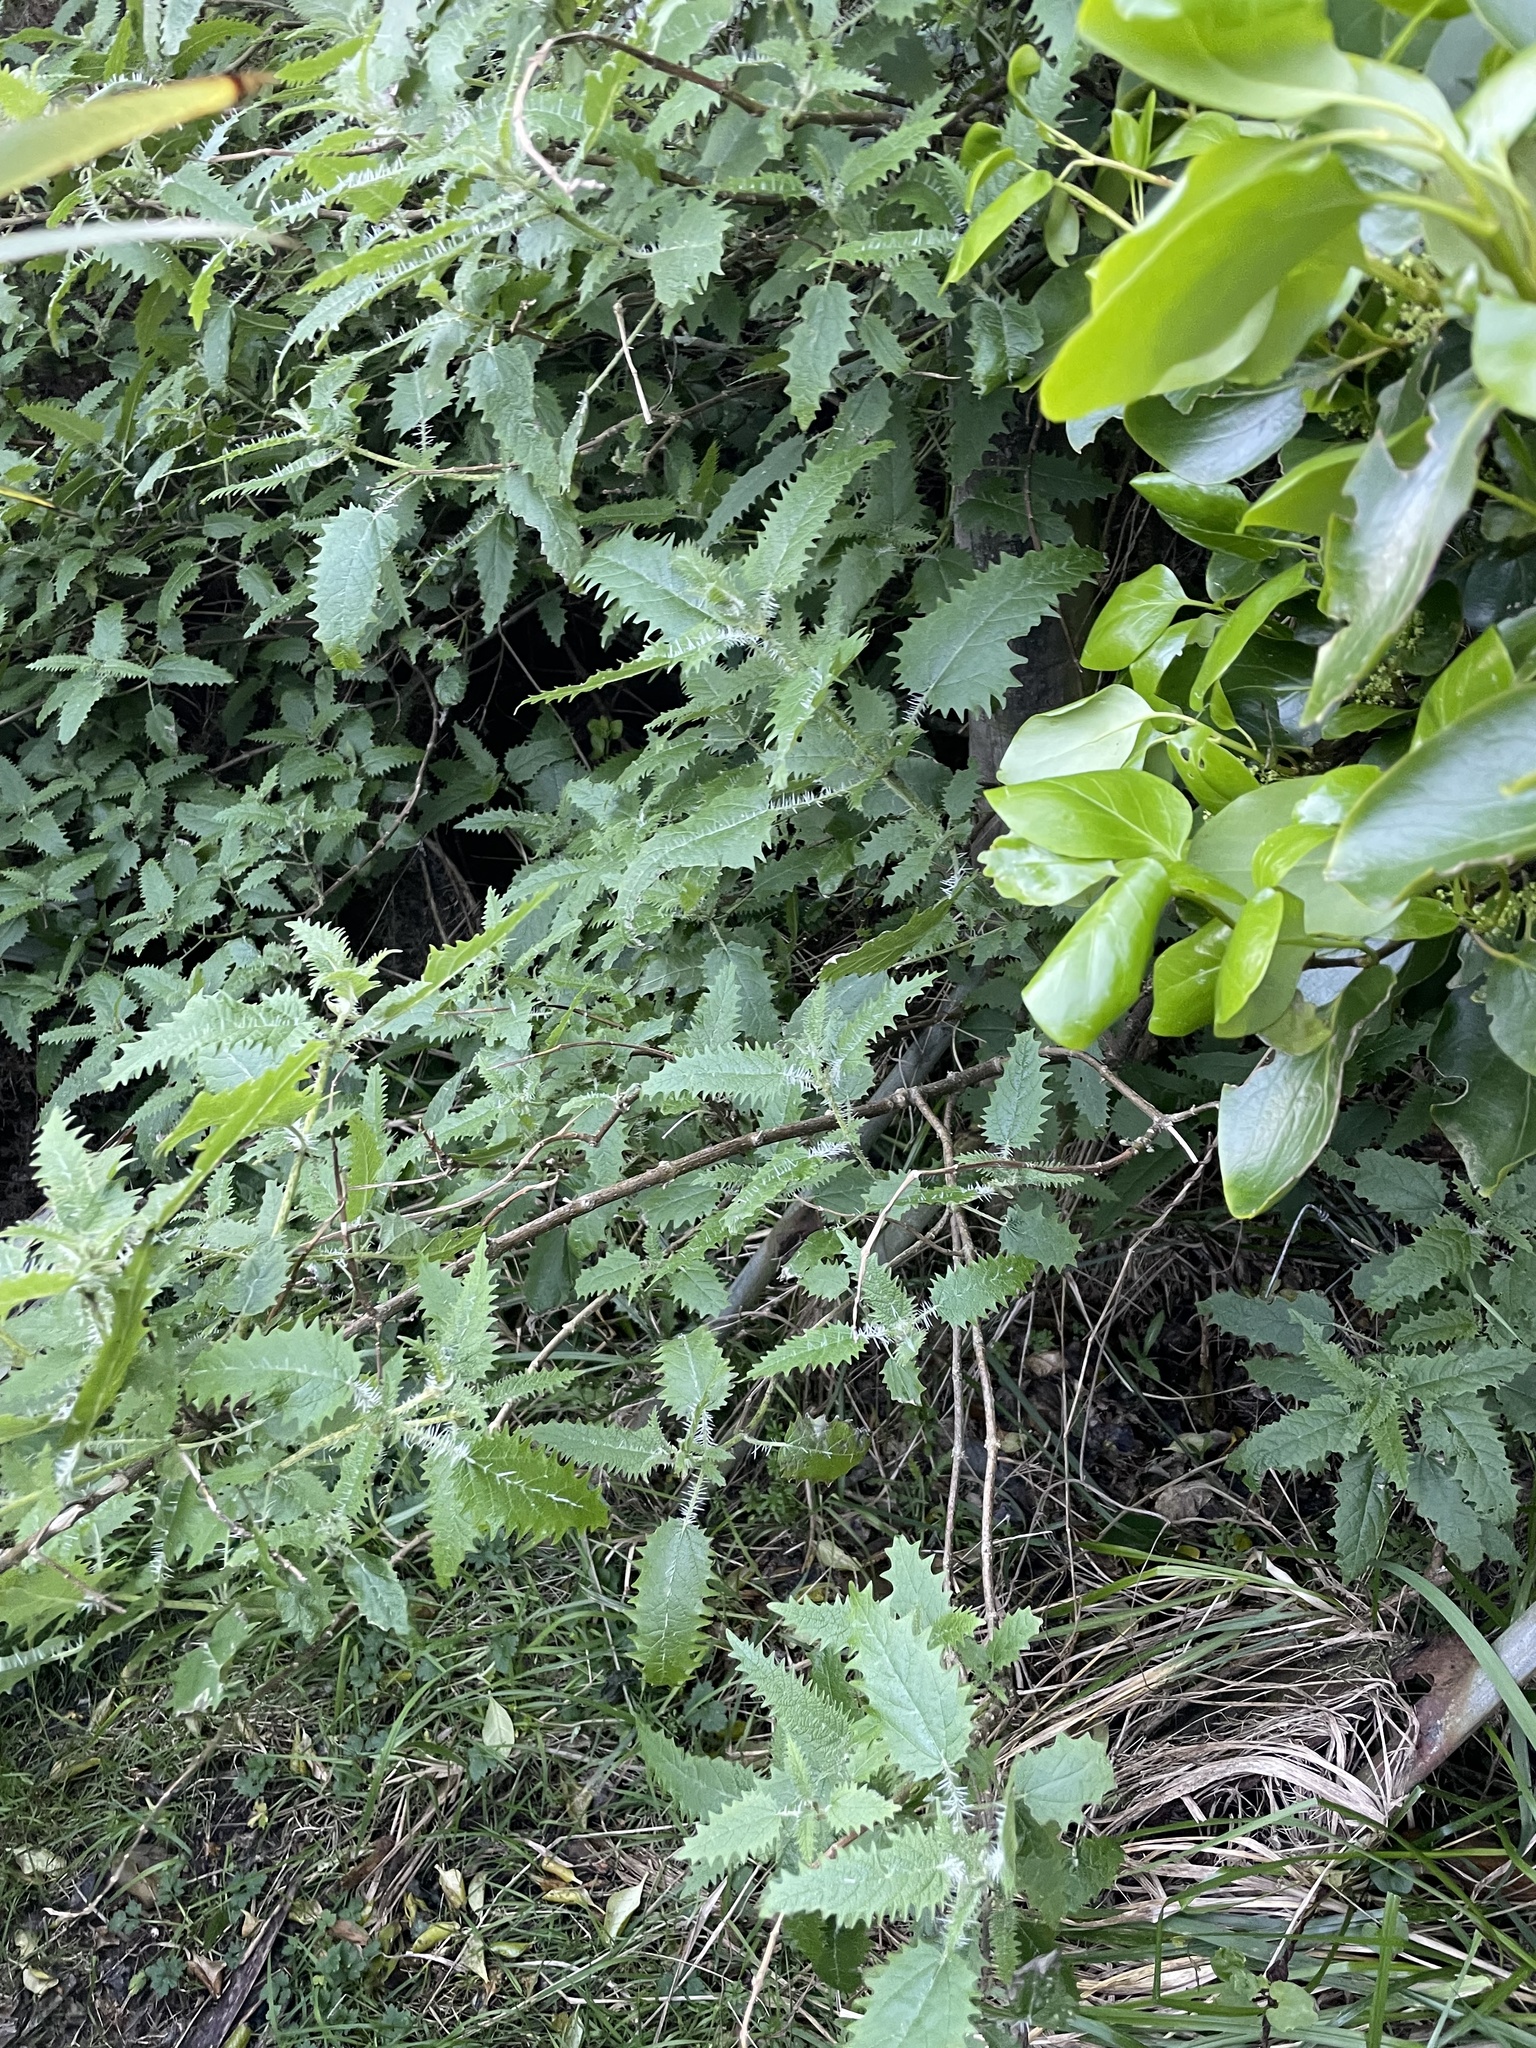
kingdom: Plantae
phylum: Tracheophyta
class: Magnoliopsida
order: Rosales
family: Urticaceae
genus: Urtica
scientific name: Urtica ferox
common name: Tree nettle
